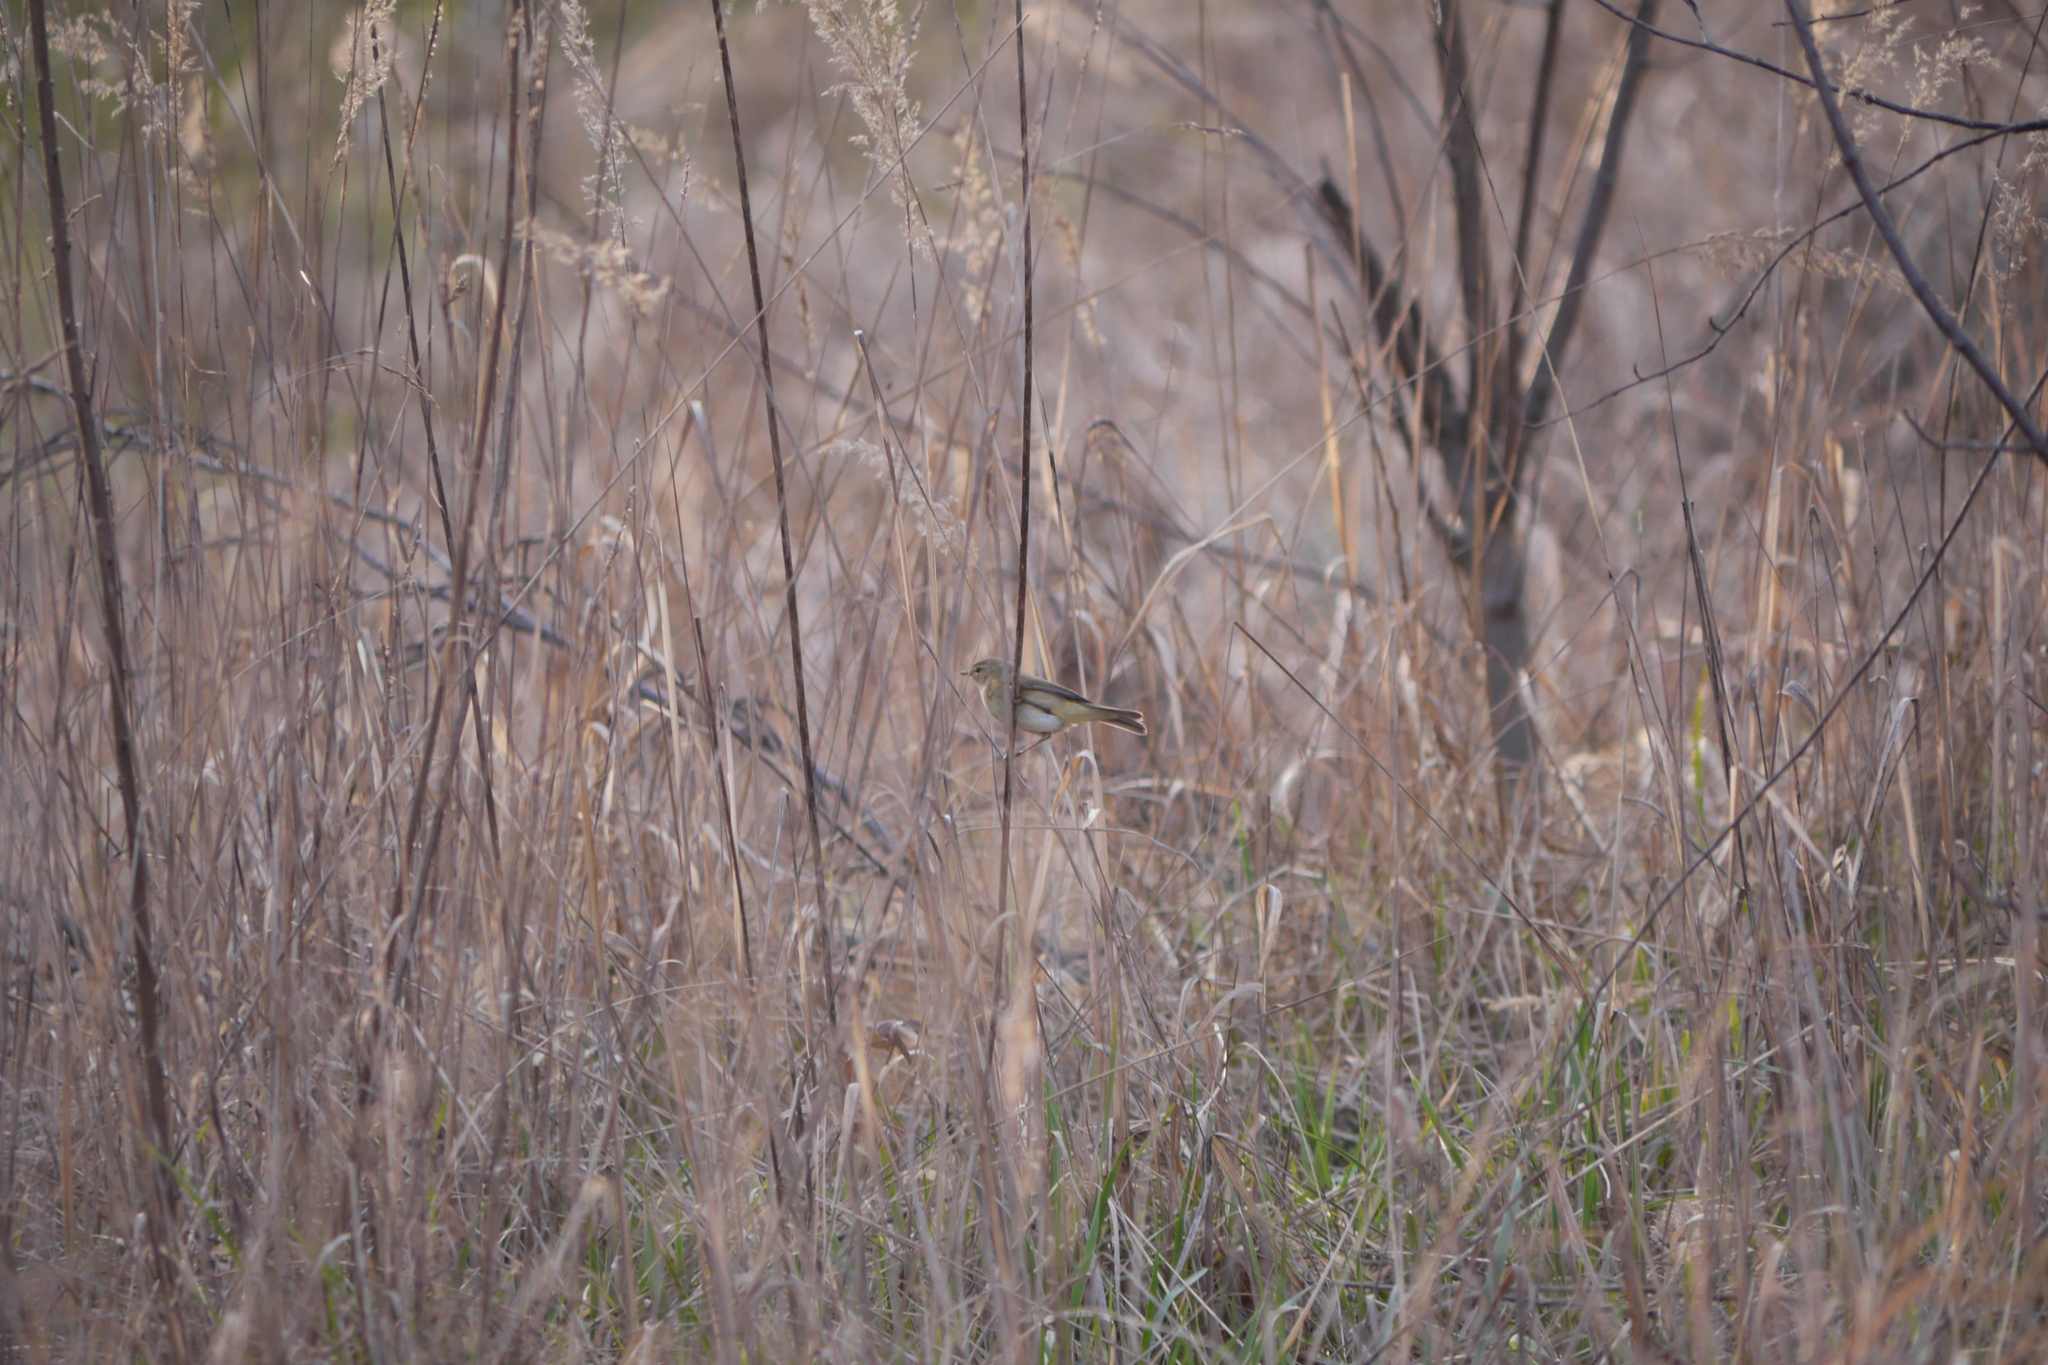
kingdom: Animalia
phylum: Chordata
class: Aves
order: Passeriformes
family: Phylloscopidae
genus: Phylloscopus
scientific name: Phylloscopus collybita
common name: Common chiffchaff
